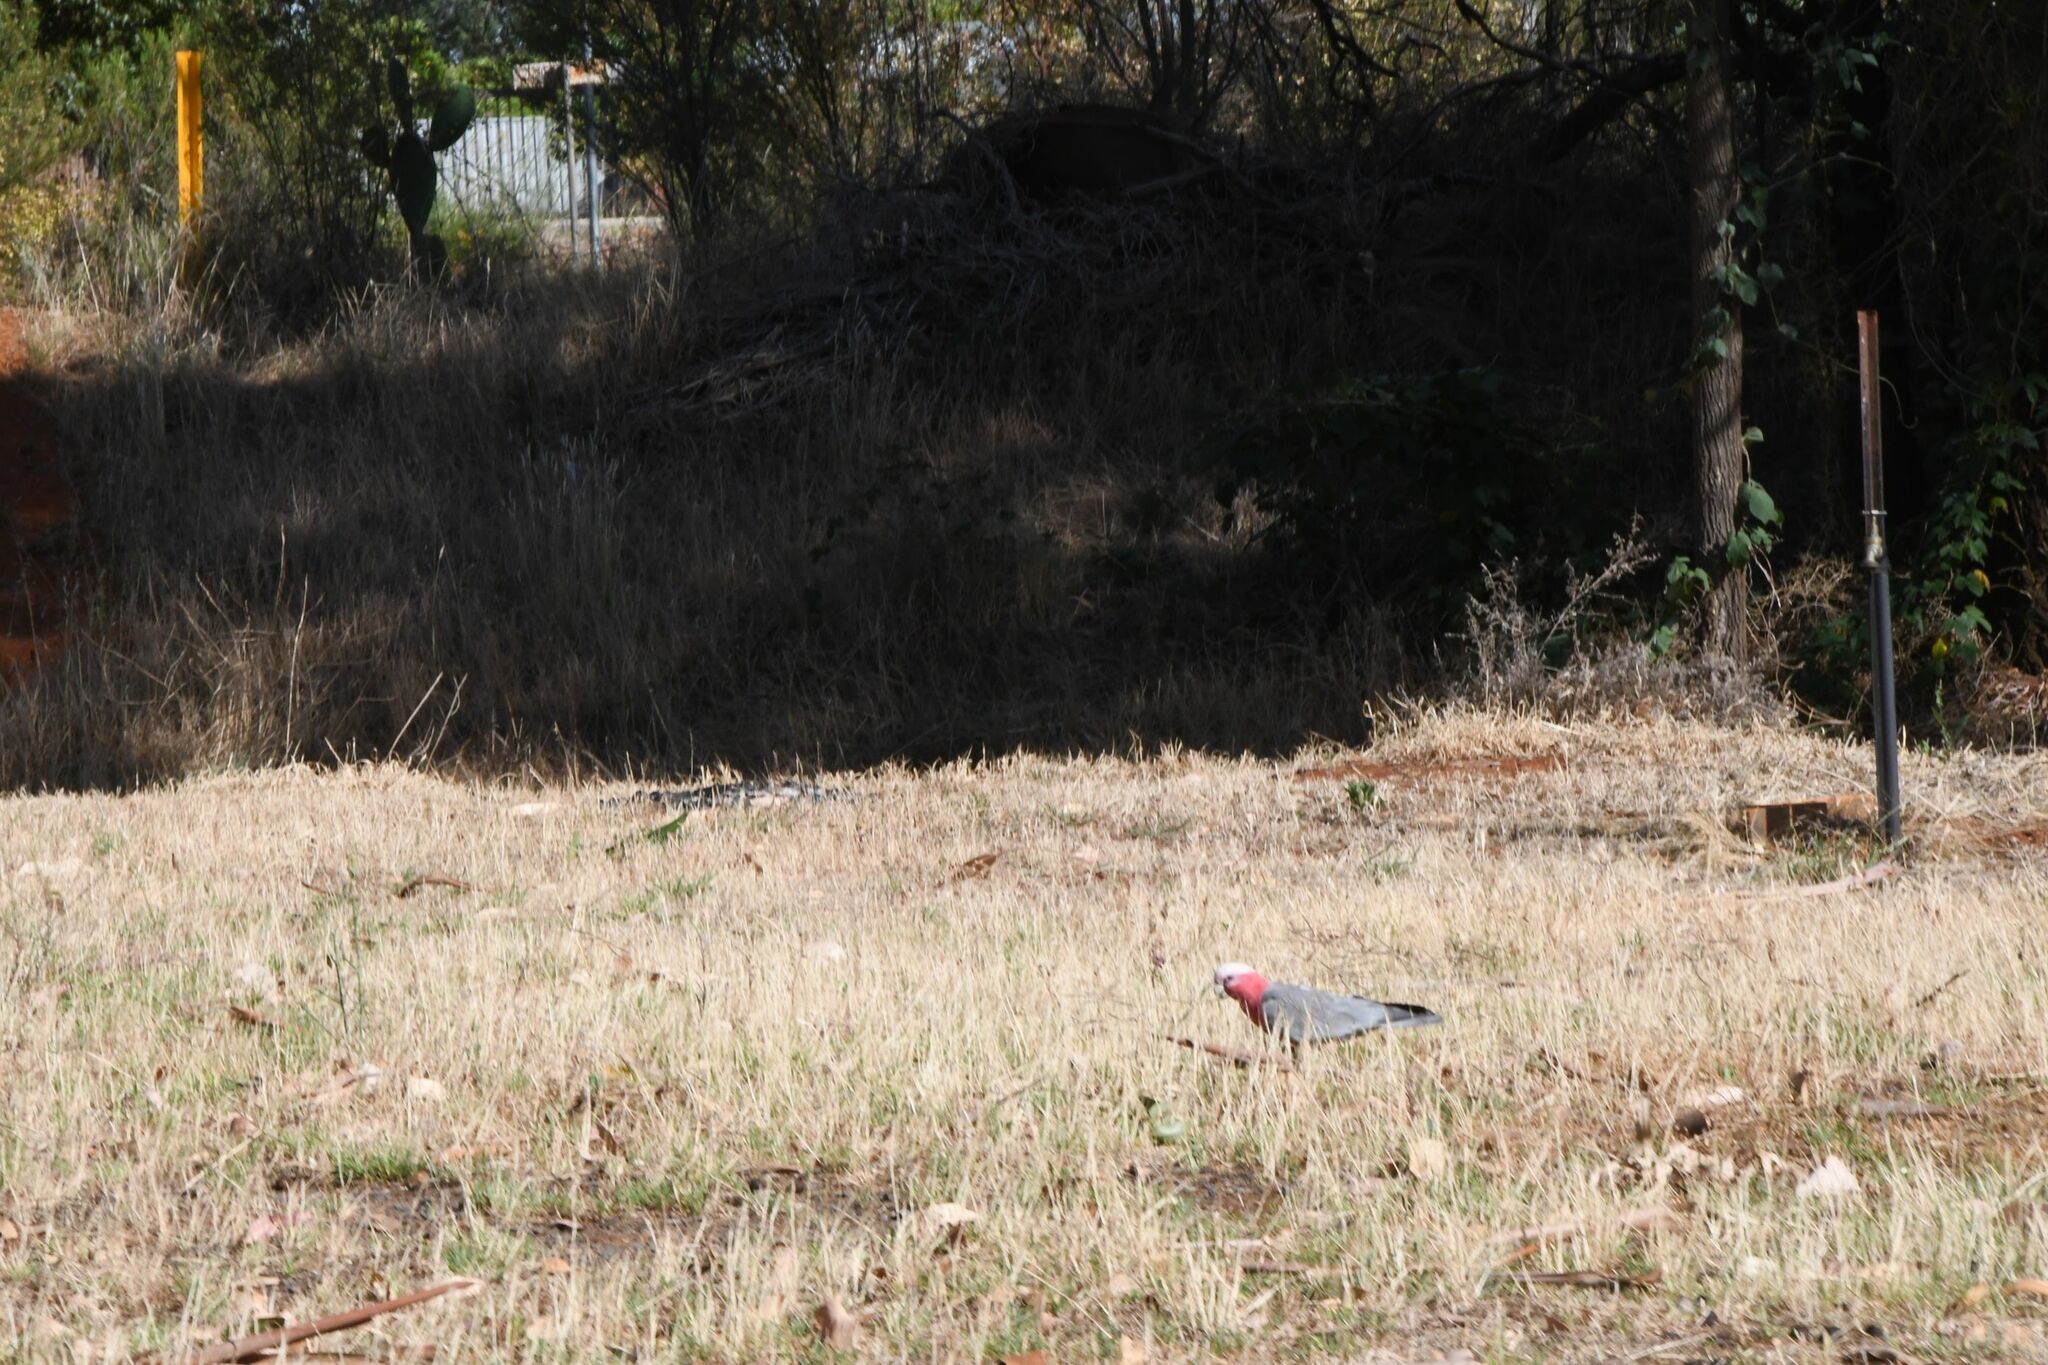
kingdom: Animalia
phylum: Chordata
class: Aves
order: Psittaciformes
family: Psittacidae
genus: Eolophus
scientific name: Eolophus roseicapilla
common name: Galah
